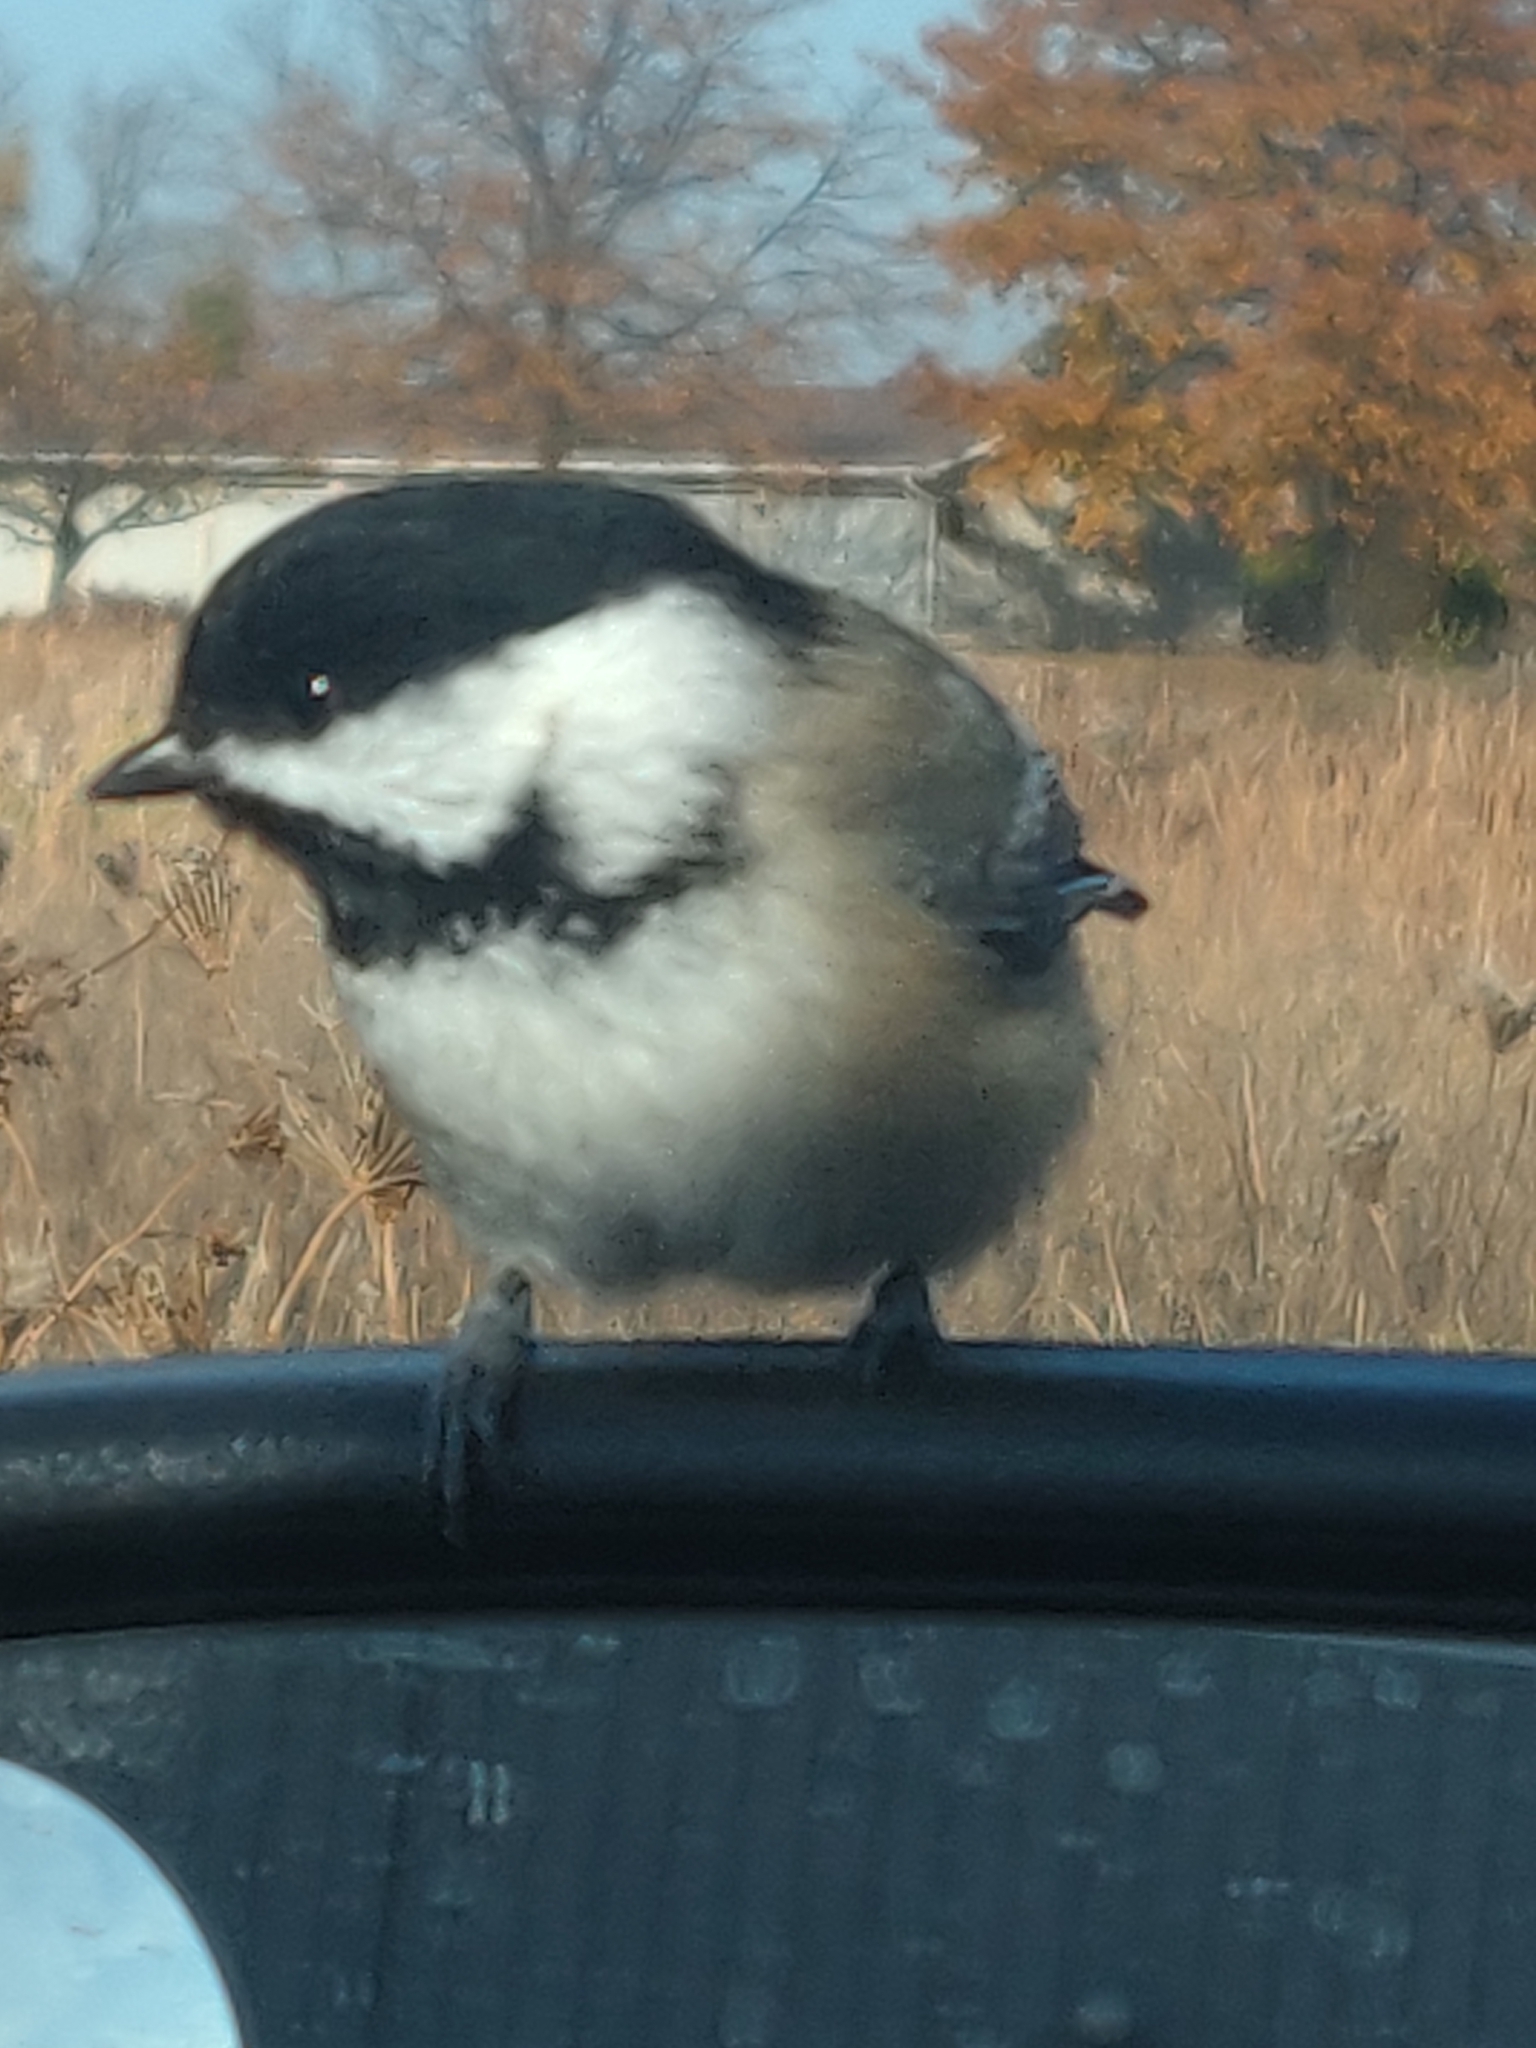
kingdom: Animalia
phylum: Chordata
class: Aves
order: Passeriformes
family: Paridae
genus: Poecile
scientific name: Poecile atricapillus
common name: Black-capped chickadee
